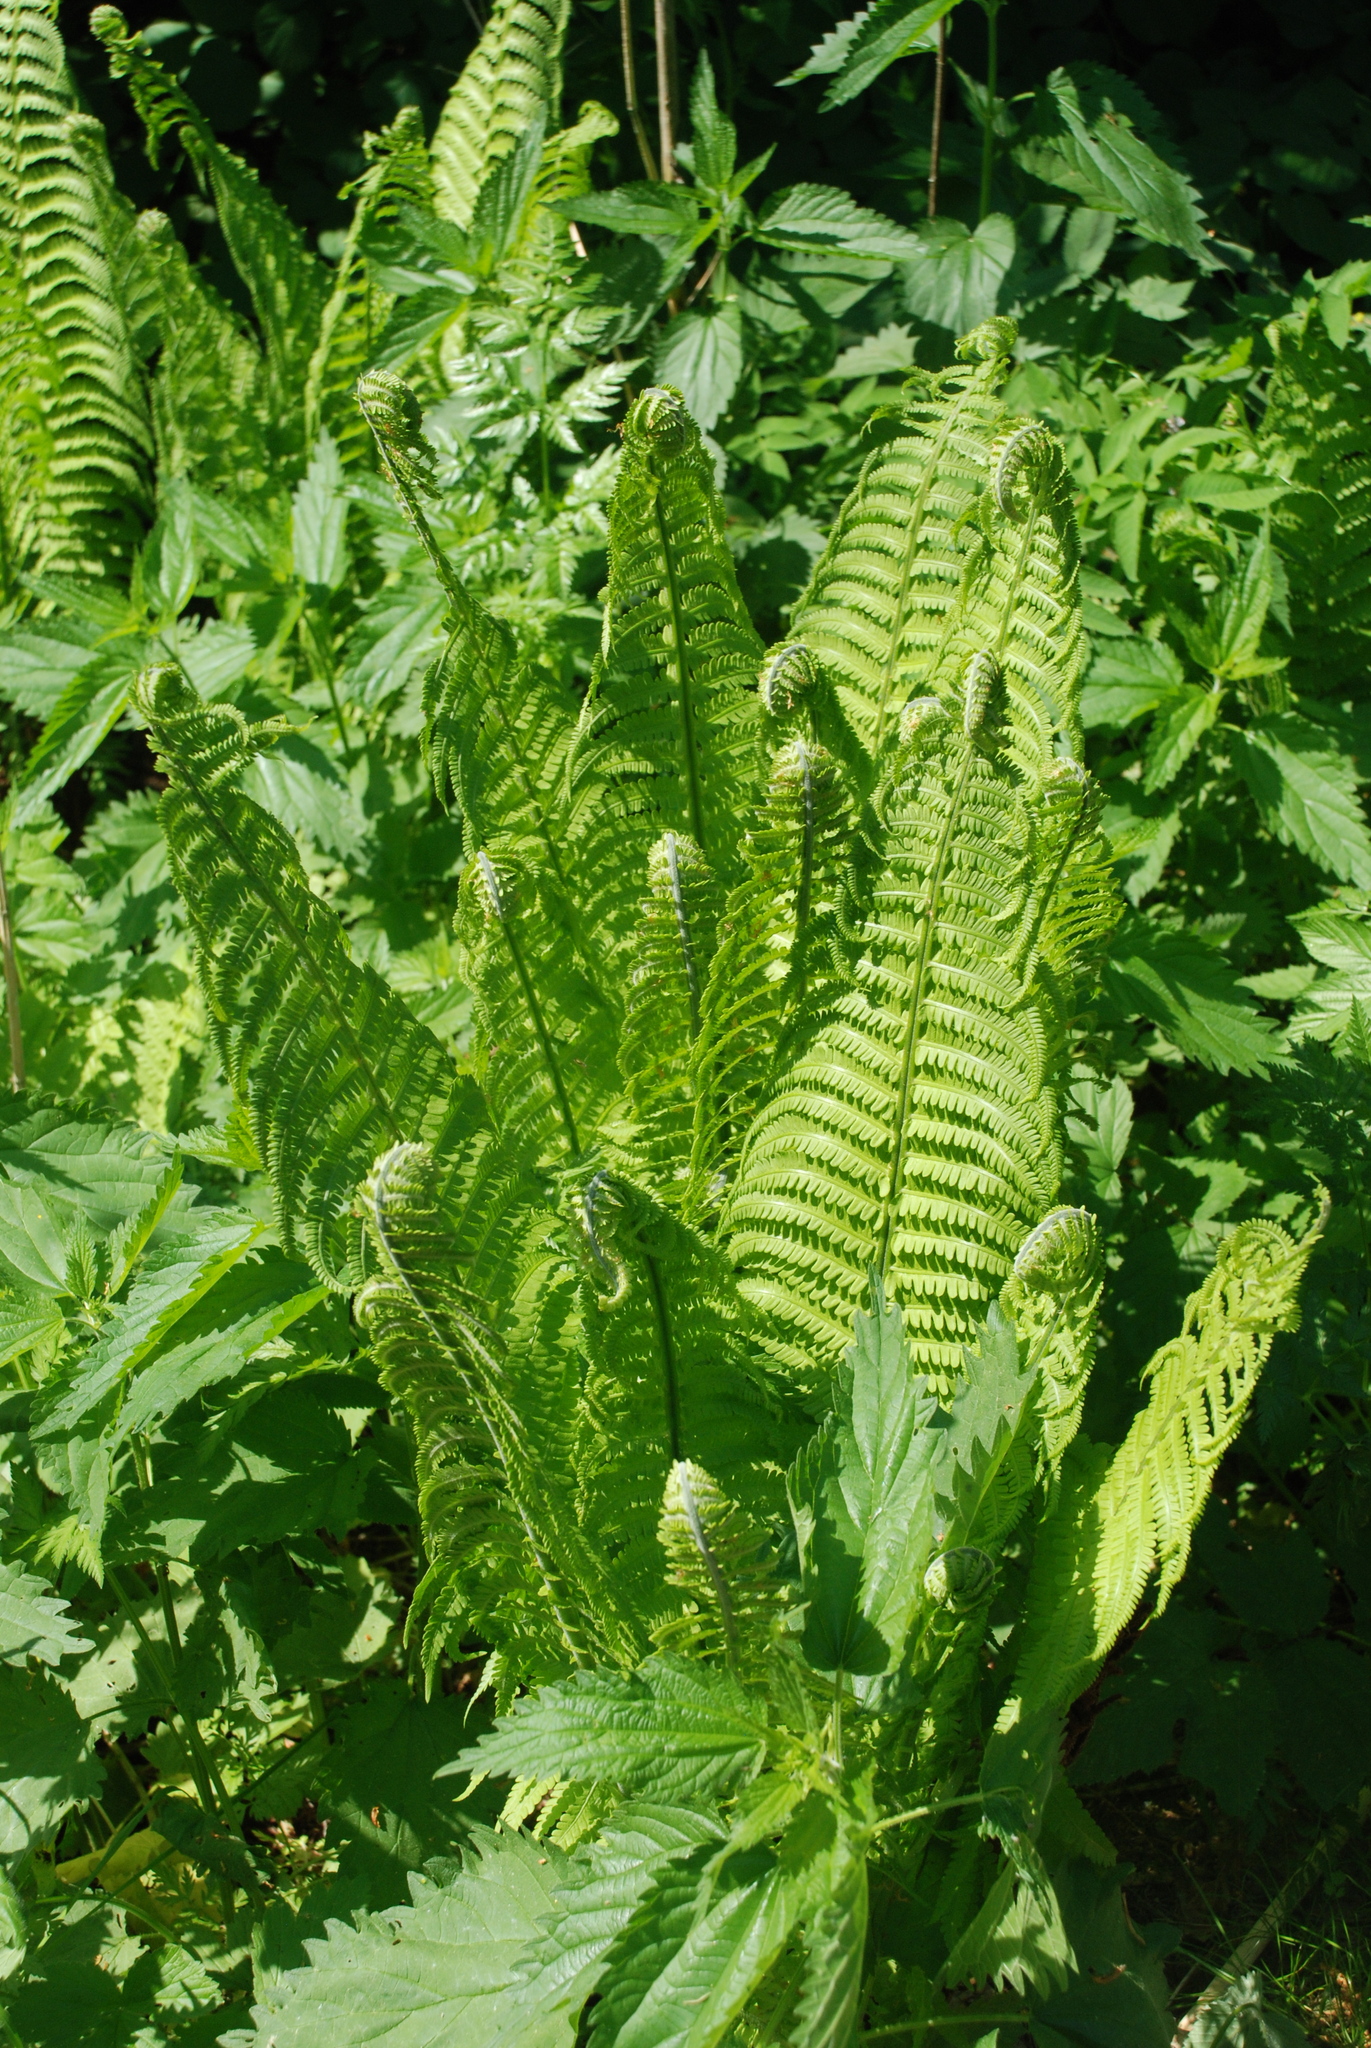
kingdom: Plantae
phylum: Tracheophyta
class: Polypodiopsida
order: Polypodiales
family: Onocleaceae
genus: Matteuccia
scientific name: Matteuccia struthiopteris
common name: Ostrich fern
